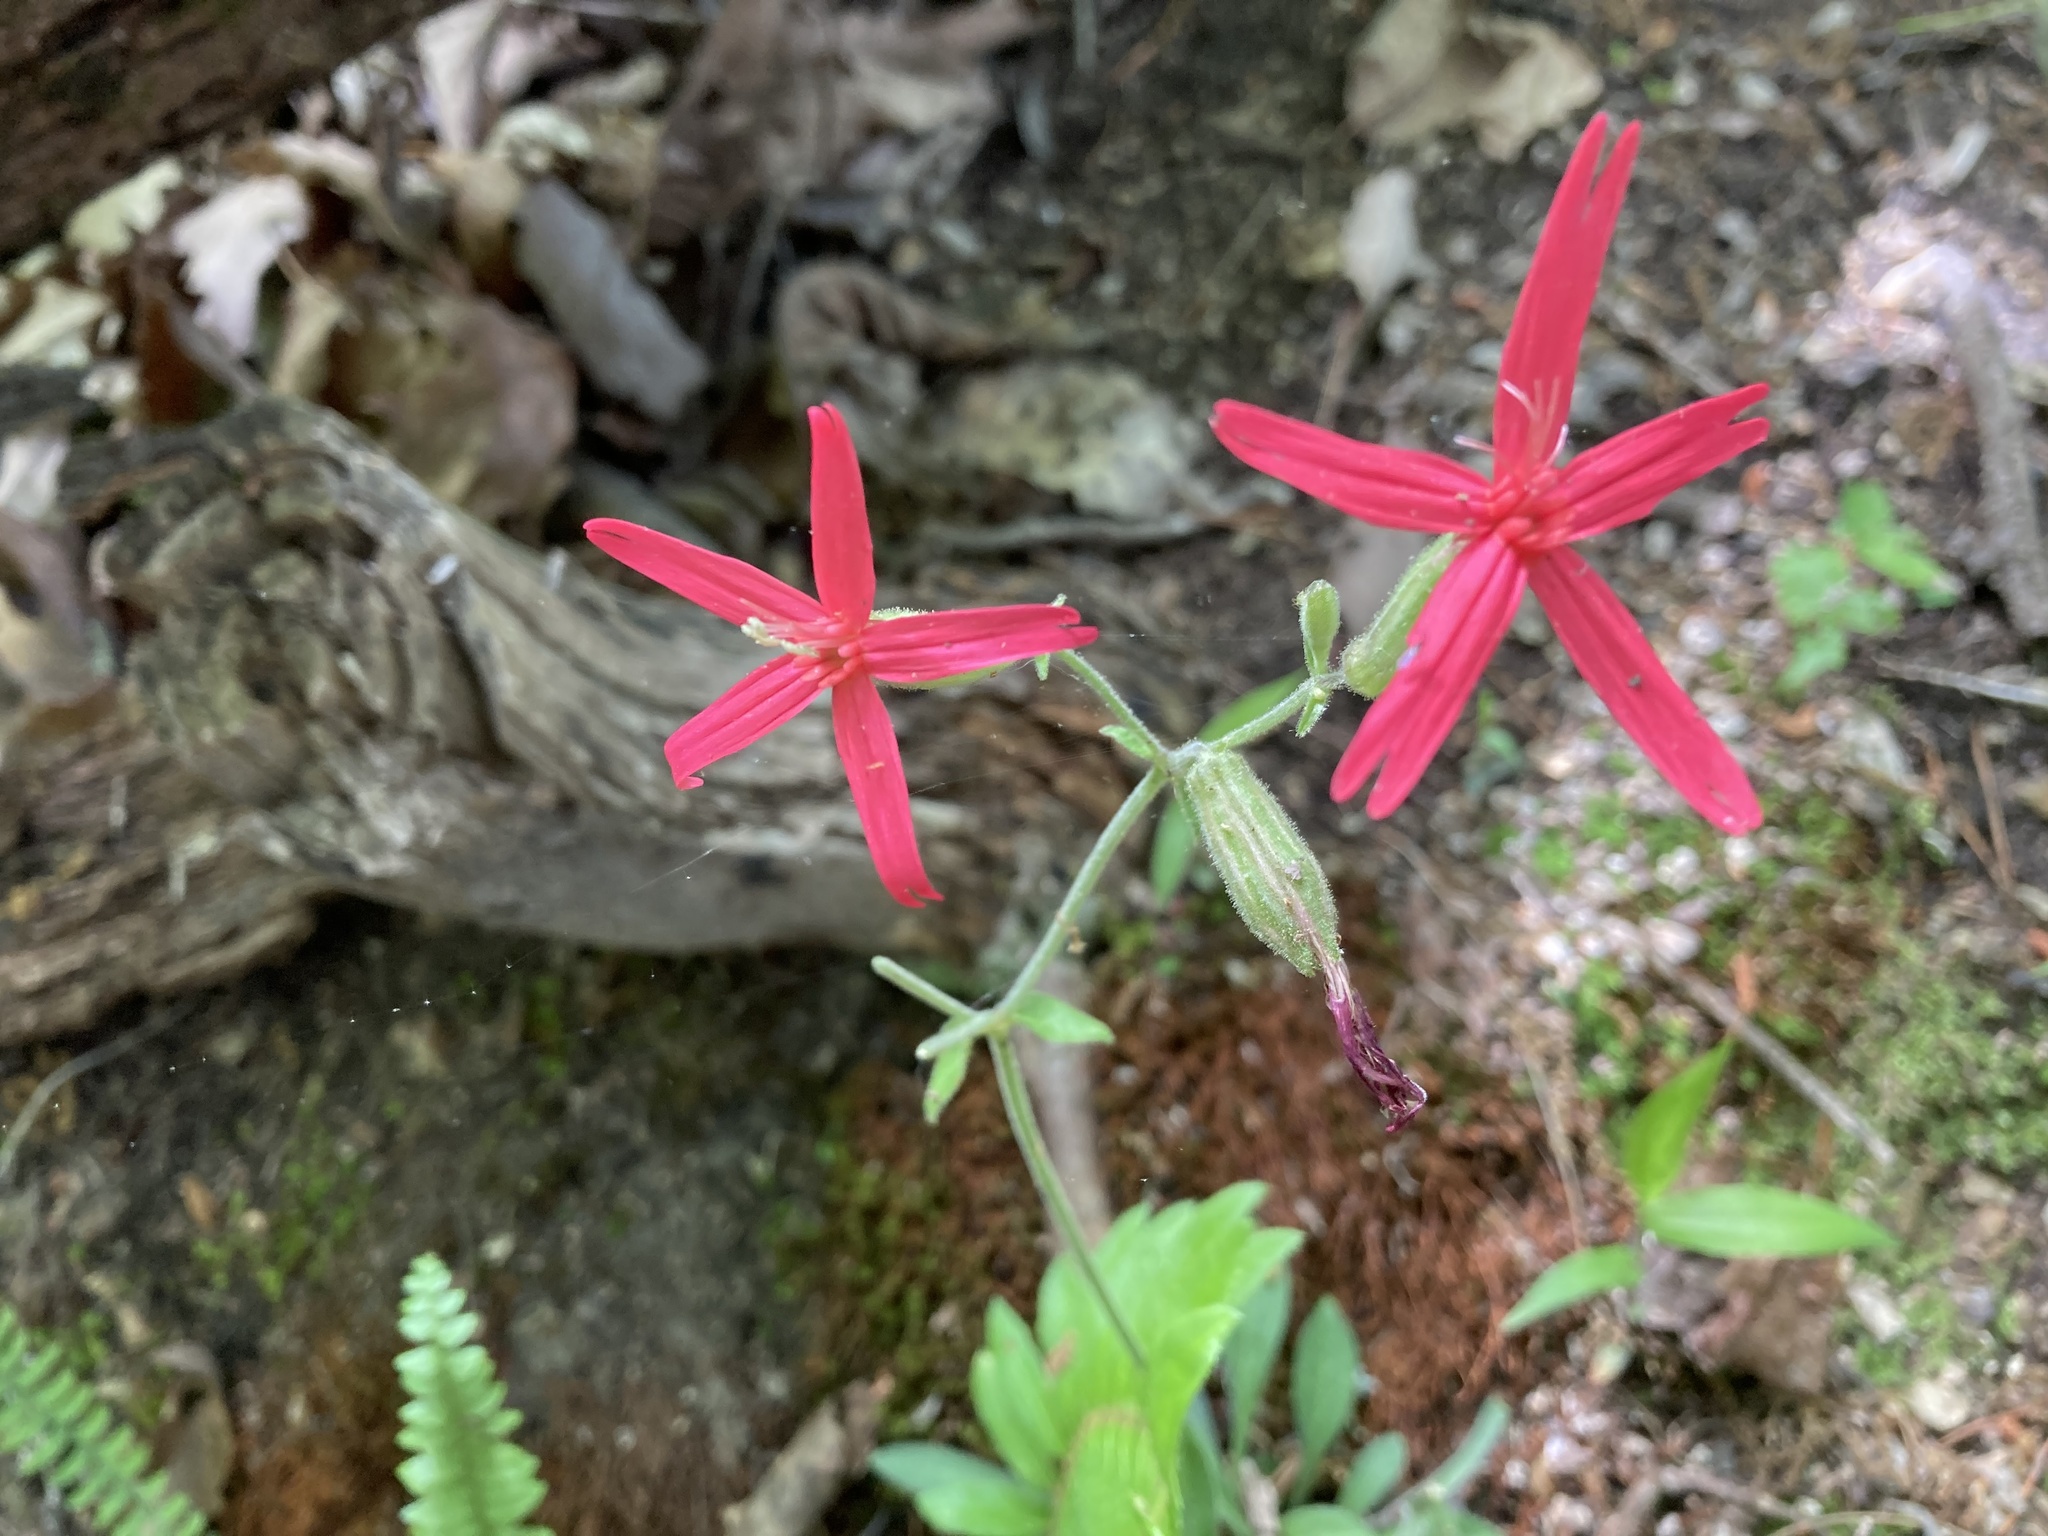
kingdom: Plantae
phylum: Tracheophyta
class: Magnoliopsida
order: Caryophyllales
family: Caryophyllaceae
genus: Silene
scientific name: Silene virginica
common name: Fire-pink
